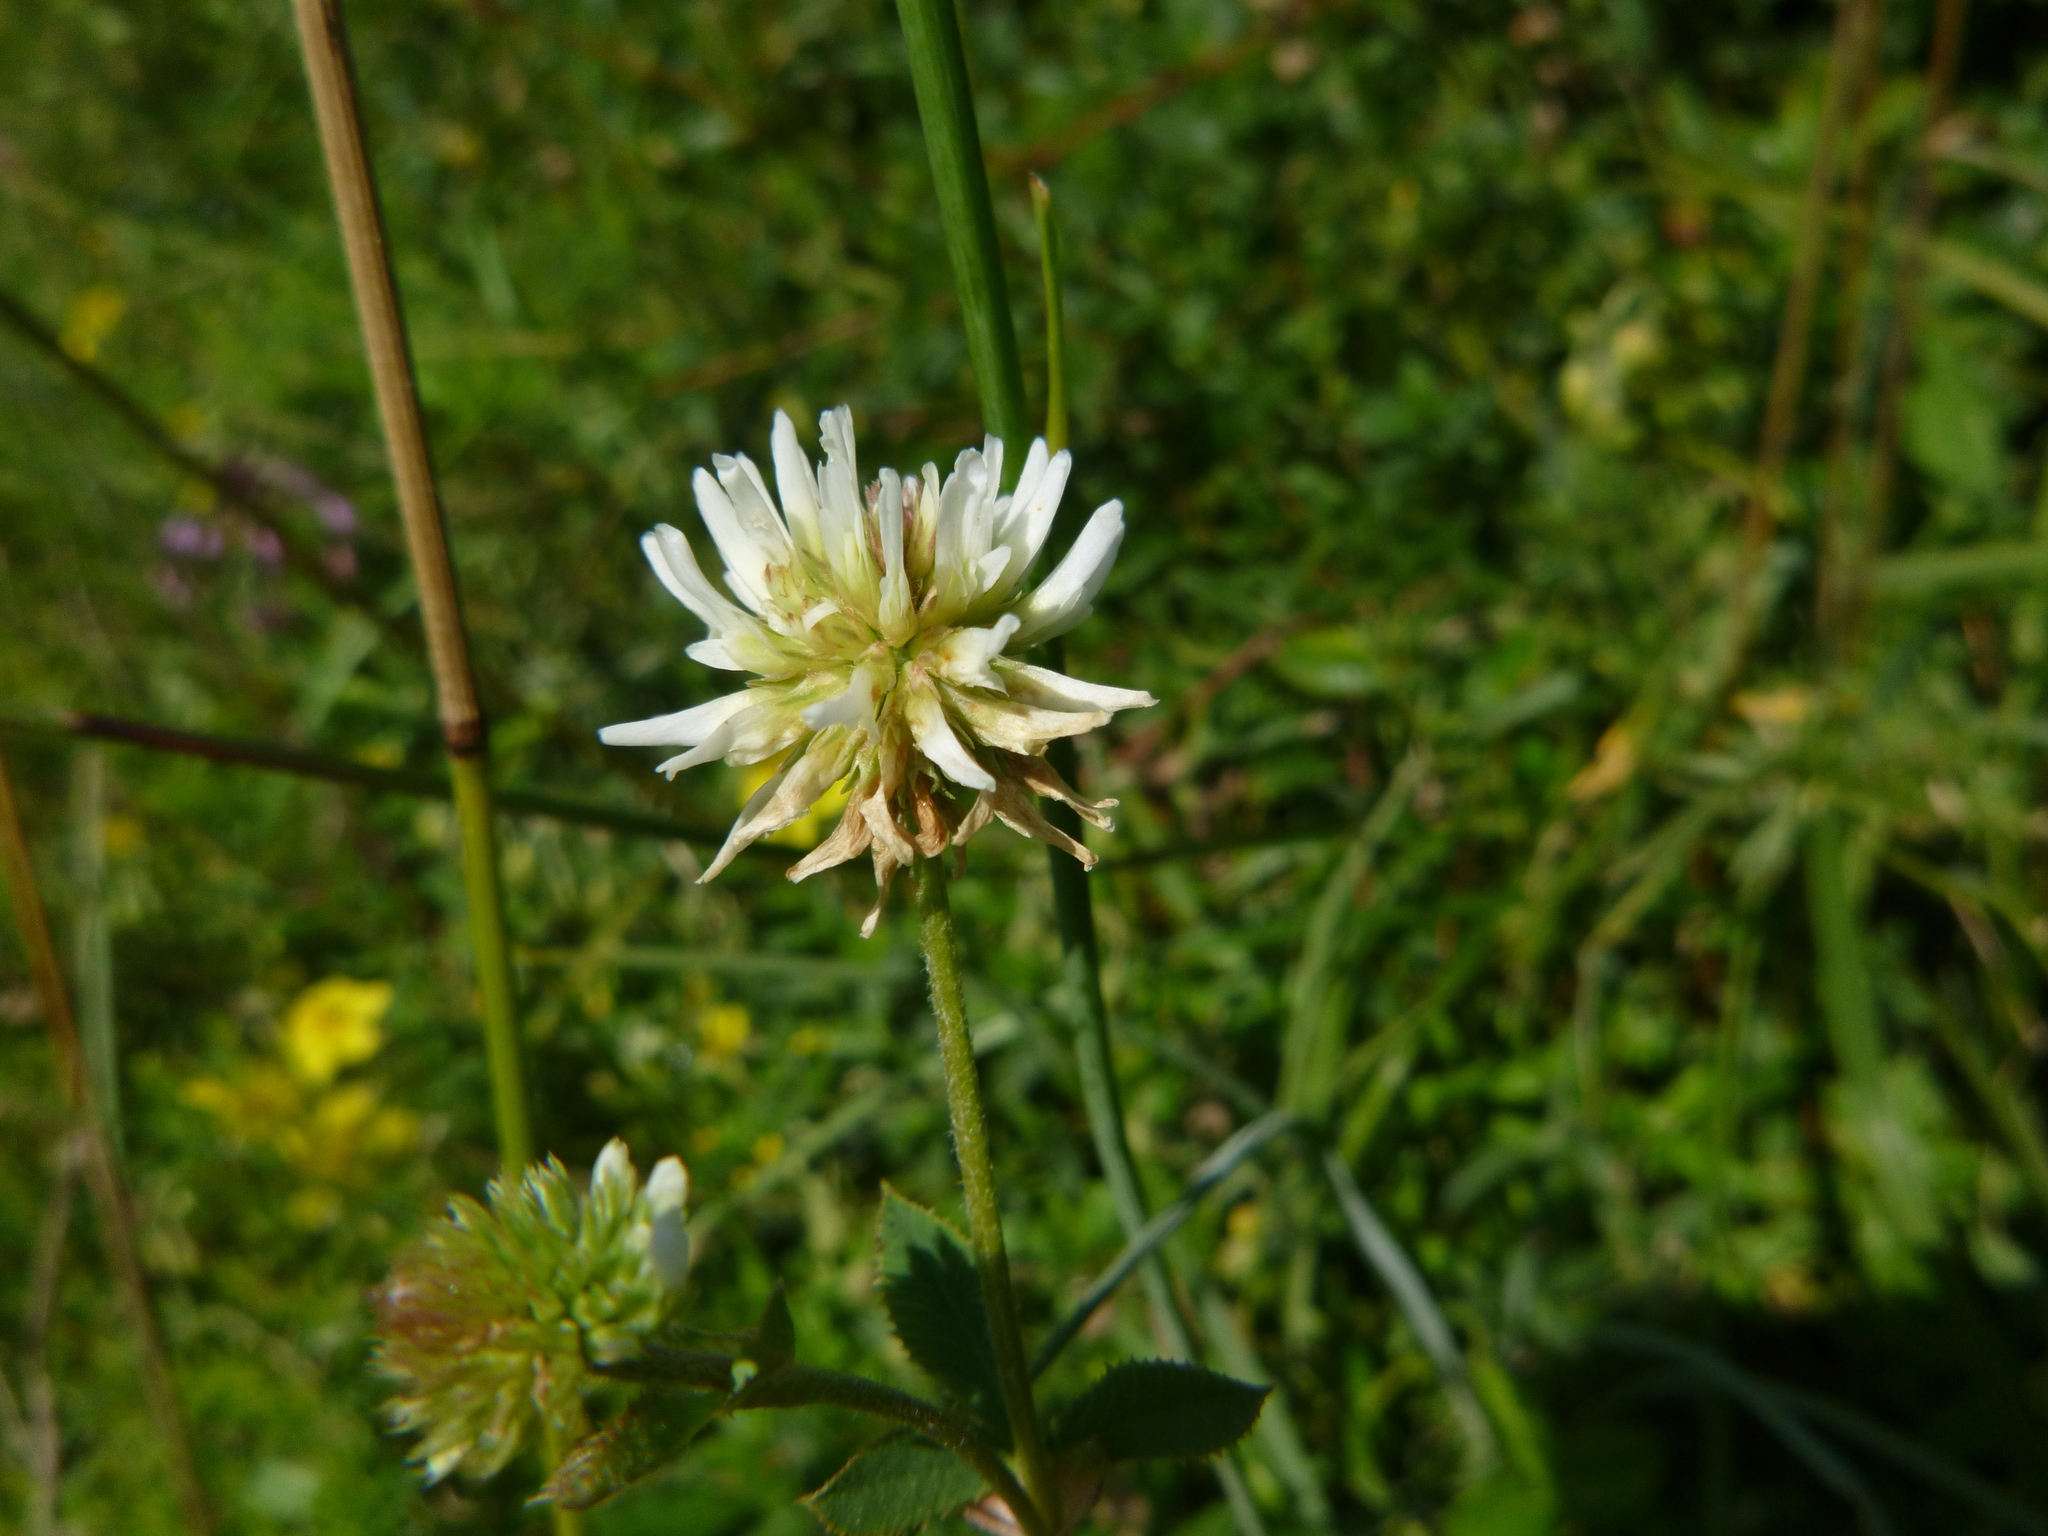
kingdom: Plantae
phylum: Tracheophyta
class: Magnoliopsida
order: Fabales
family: Fabaceae
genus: Trifolium
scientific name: Trifolium montanum
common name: Mountain clover
